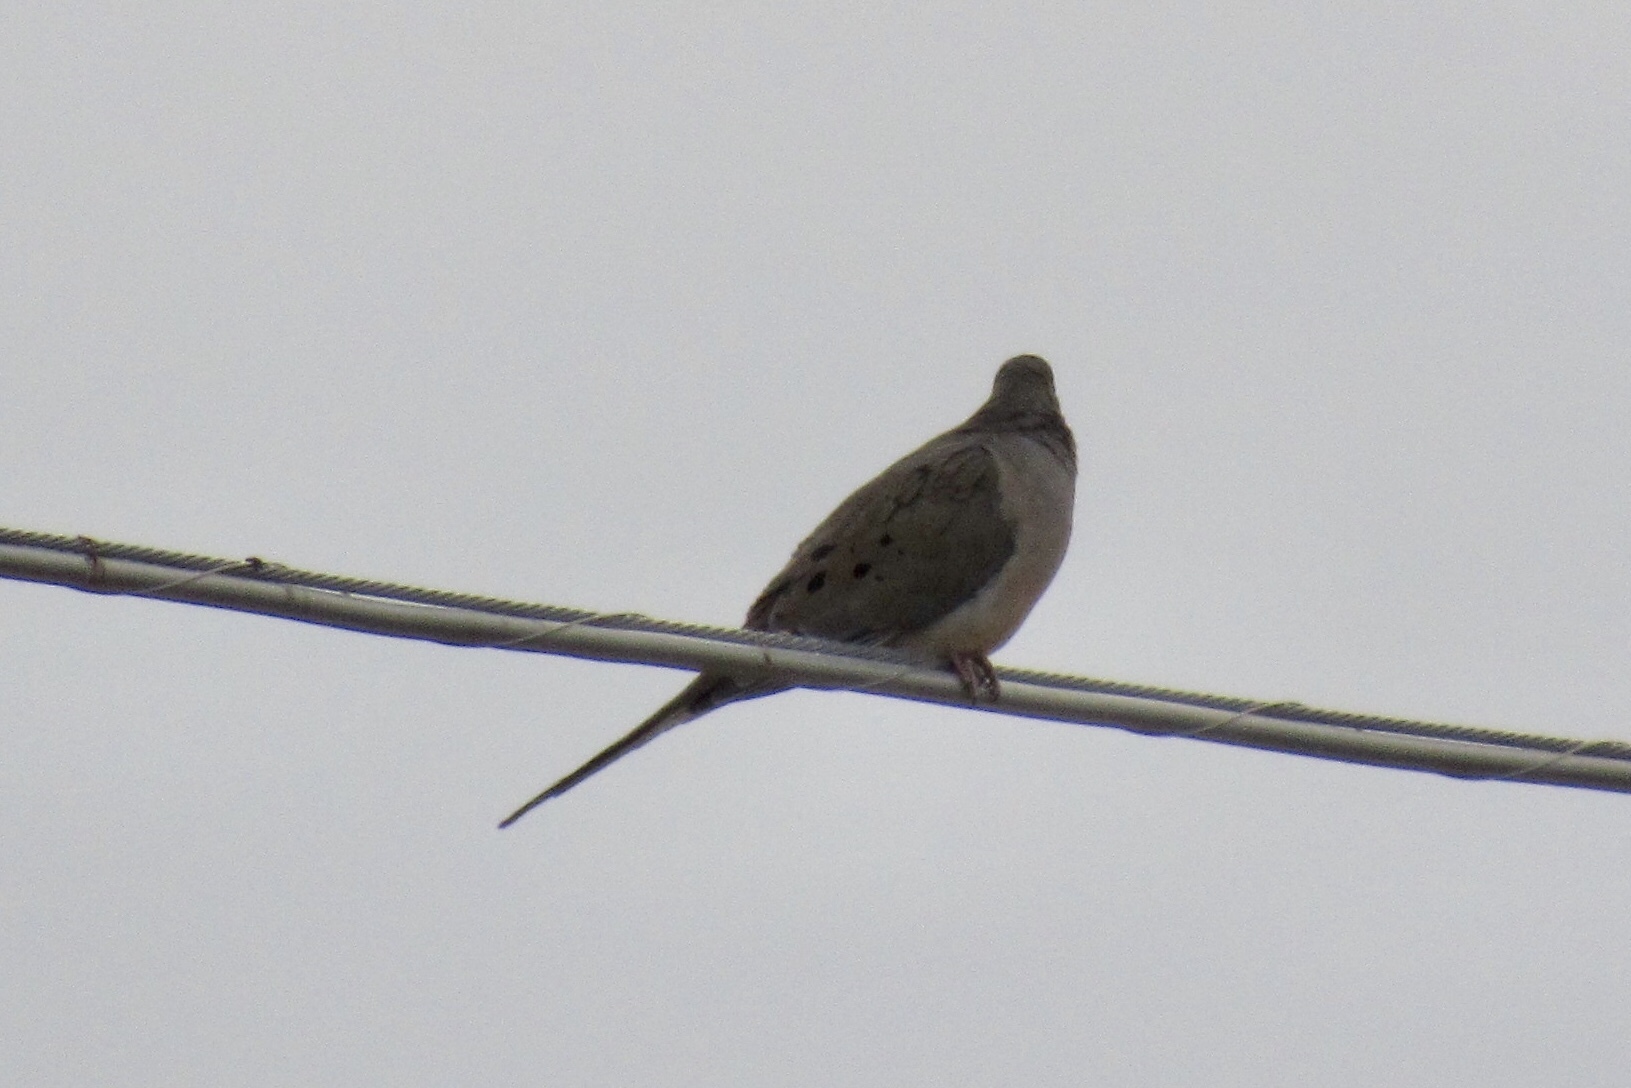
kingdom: Animalia
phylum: Chordata
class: Aves
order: Columbiformes
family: Columbidae
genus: Zenaida
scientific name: Zenaida macroura
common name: Mourning dove
